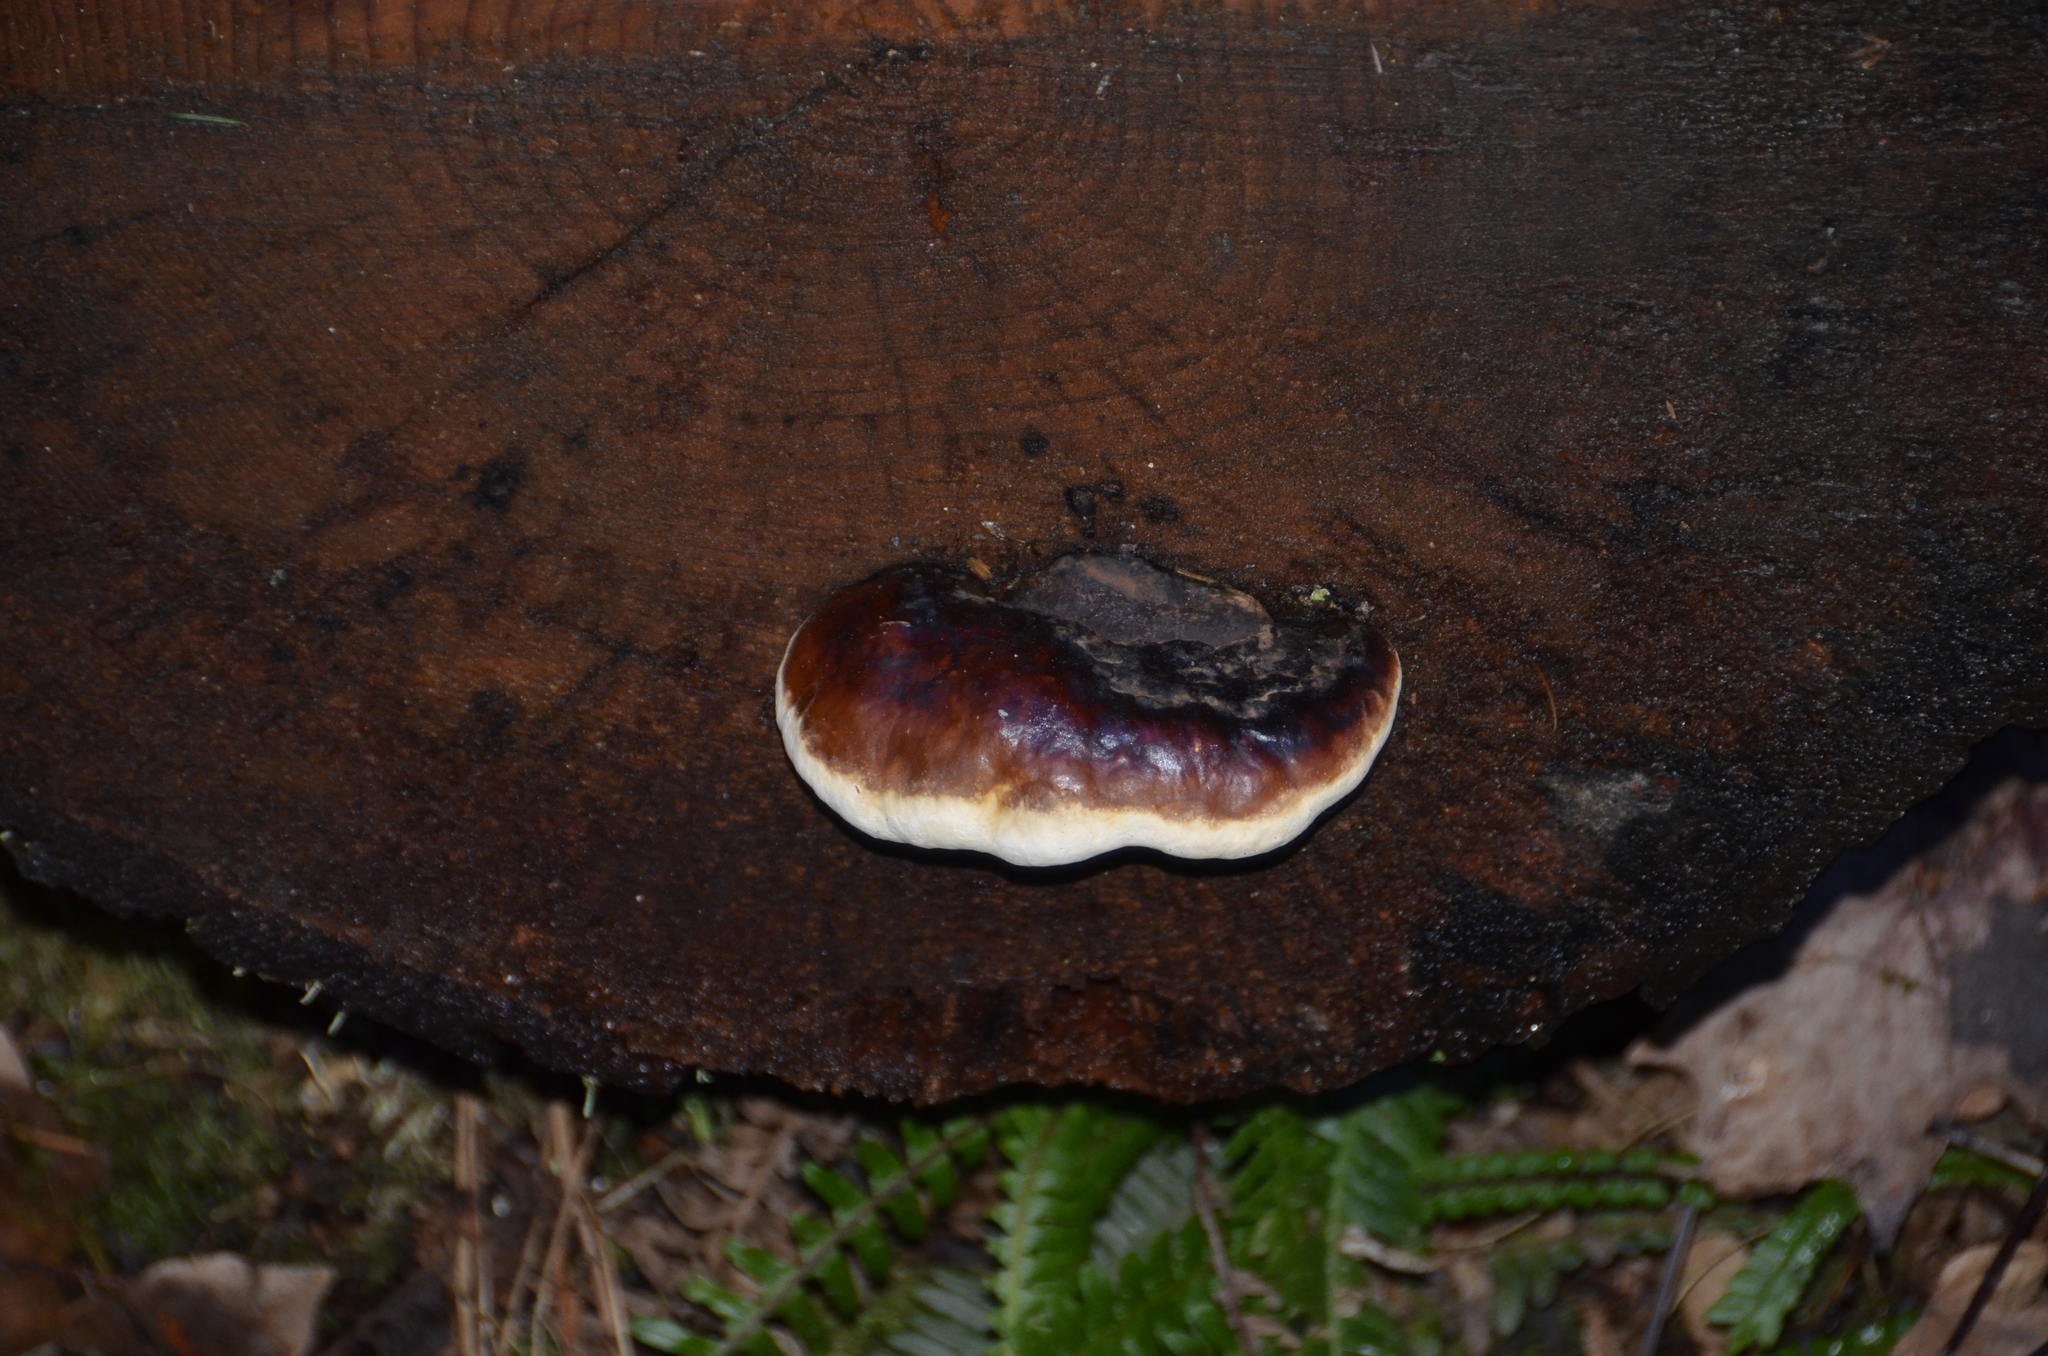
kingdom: Fungi
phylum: Basidiomycota
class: Agaricomycetes
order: Polyporales
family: Fomitopsidaceae
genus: Fomitopsis
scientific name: Fomitopsis mounceae
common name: Northern red belt
